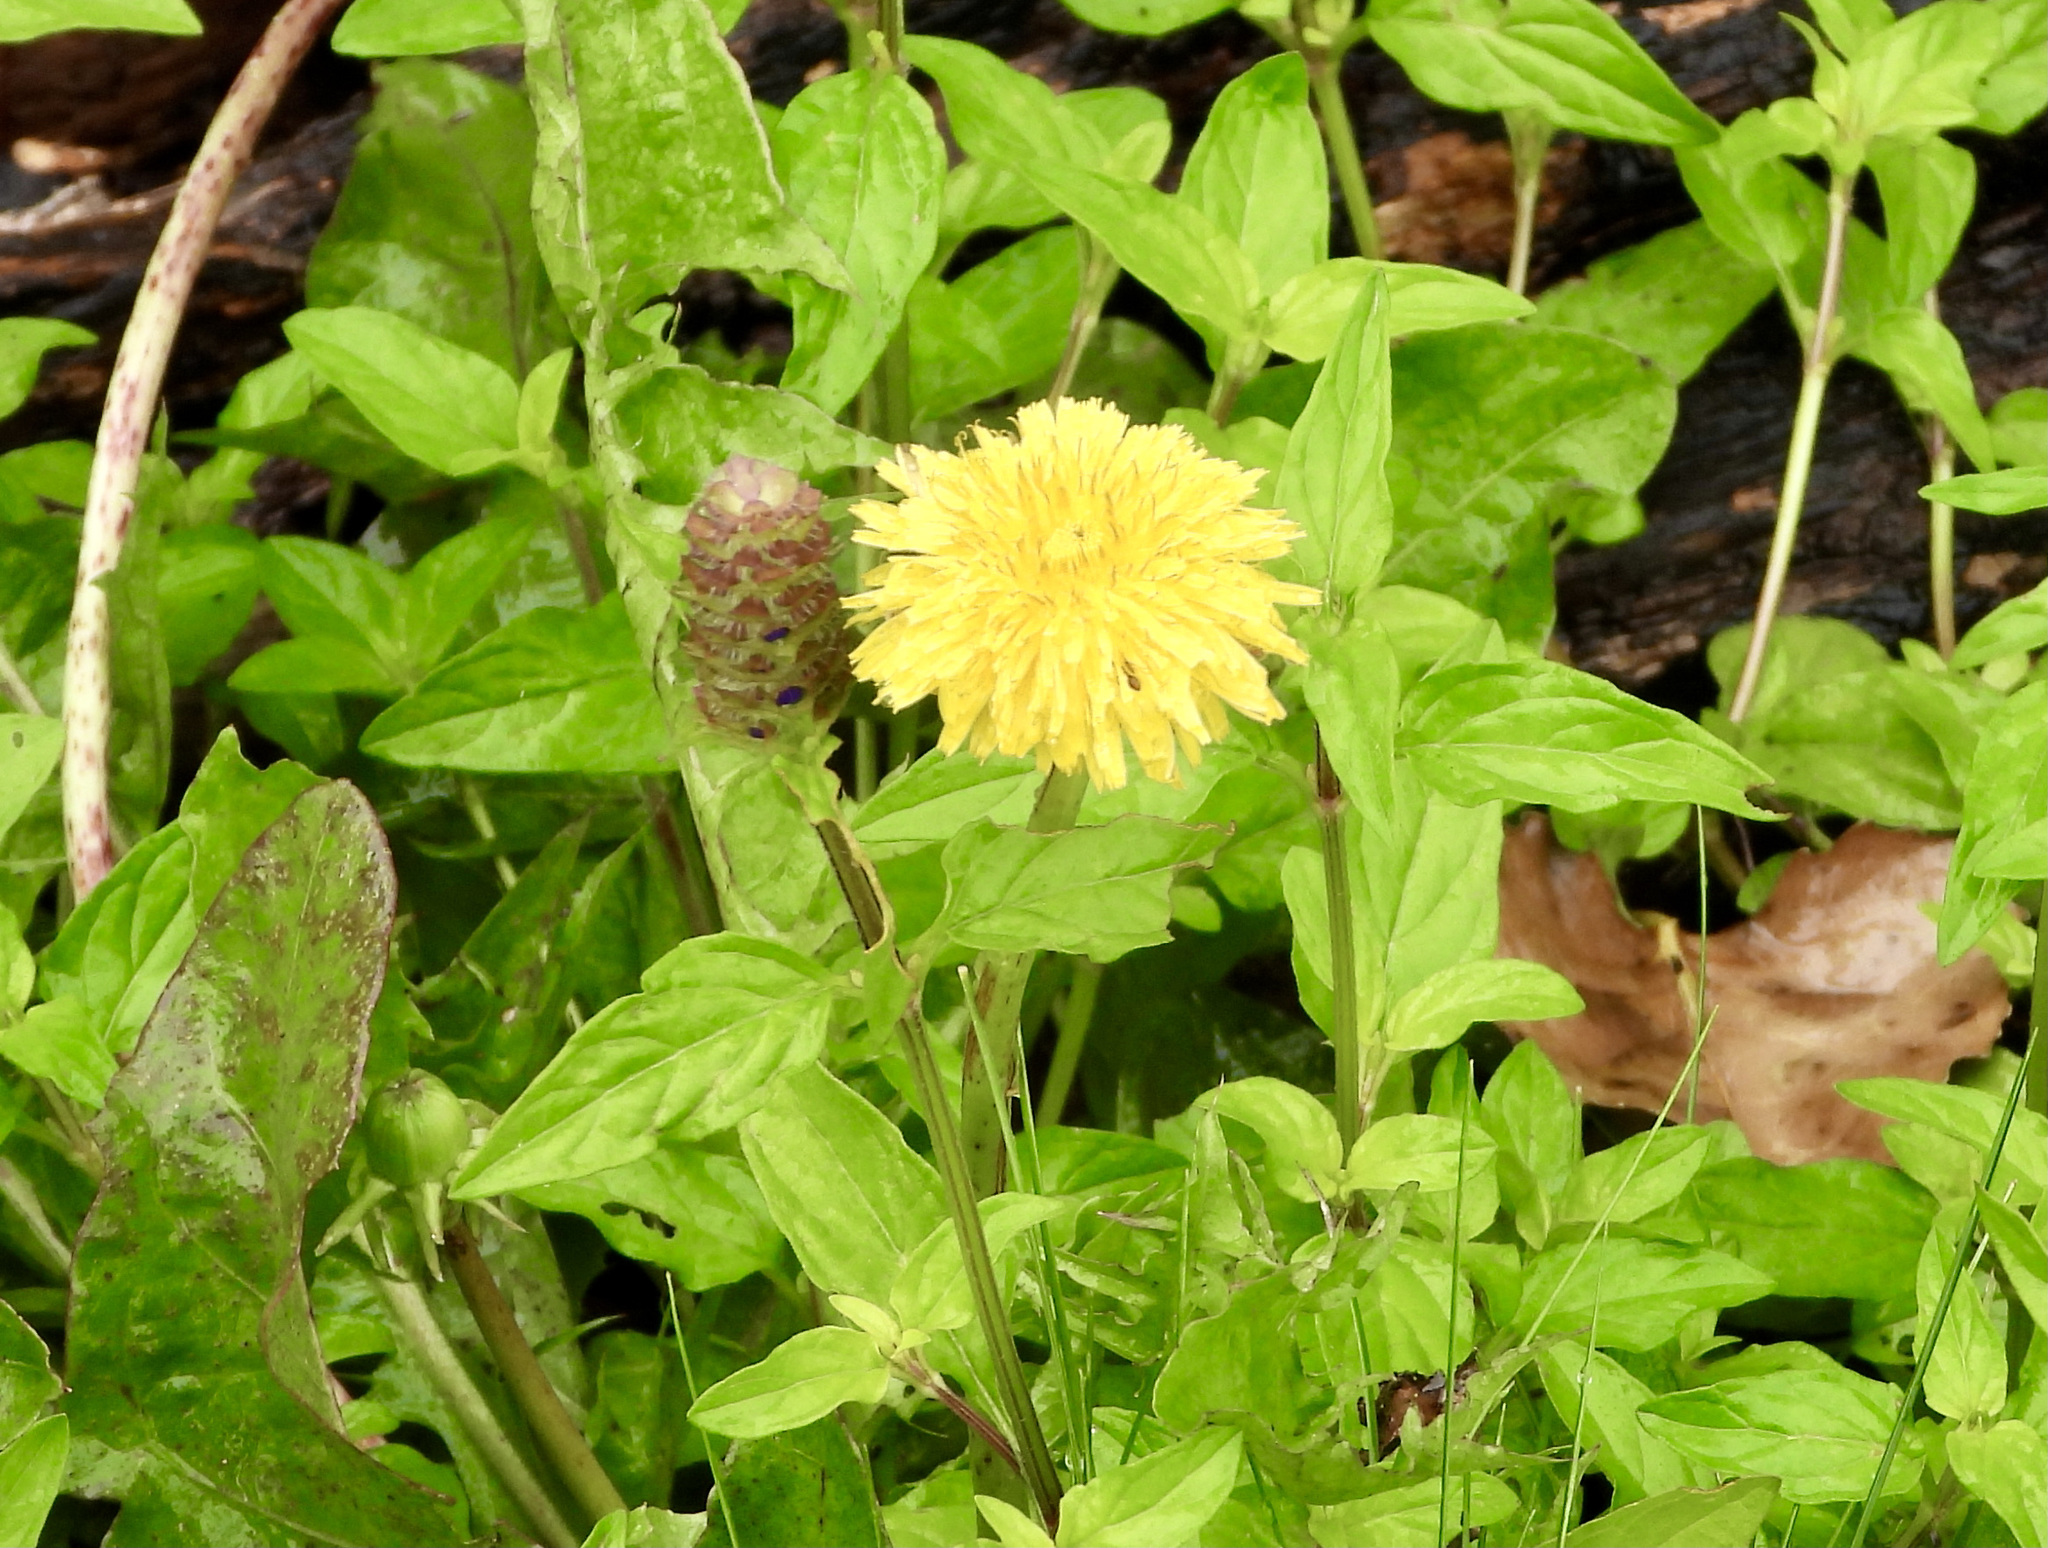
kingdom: Plantae
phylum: Tracheophyta
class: Magnoliopsida
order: Lamiales
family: Lamiaceae
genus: Prunella
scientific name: Prunella vulgaris
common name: Heal-all
